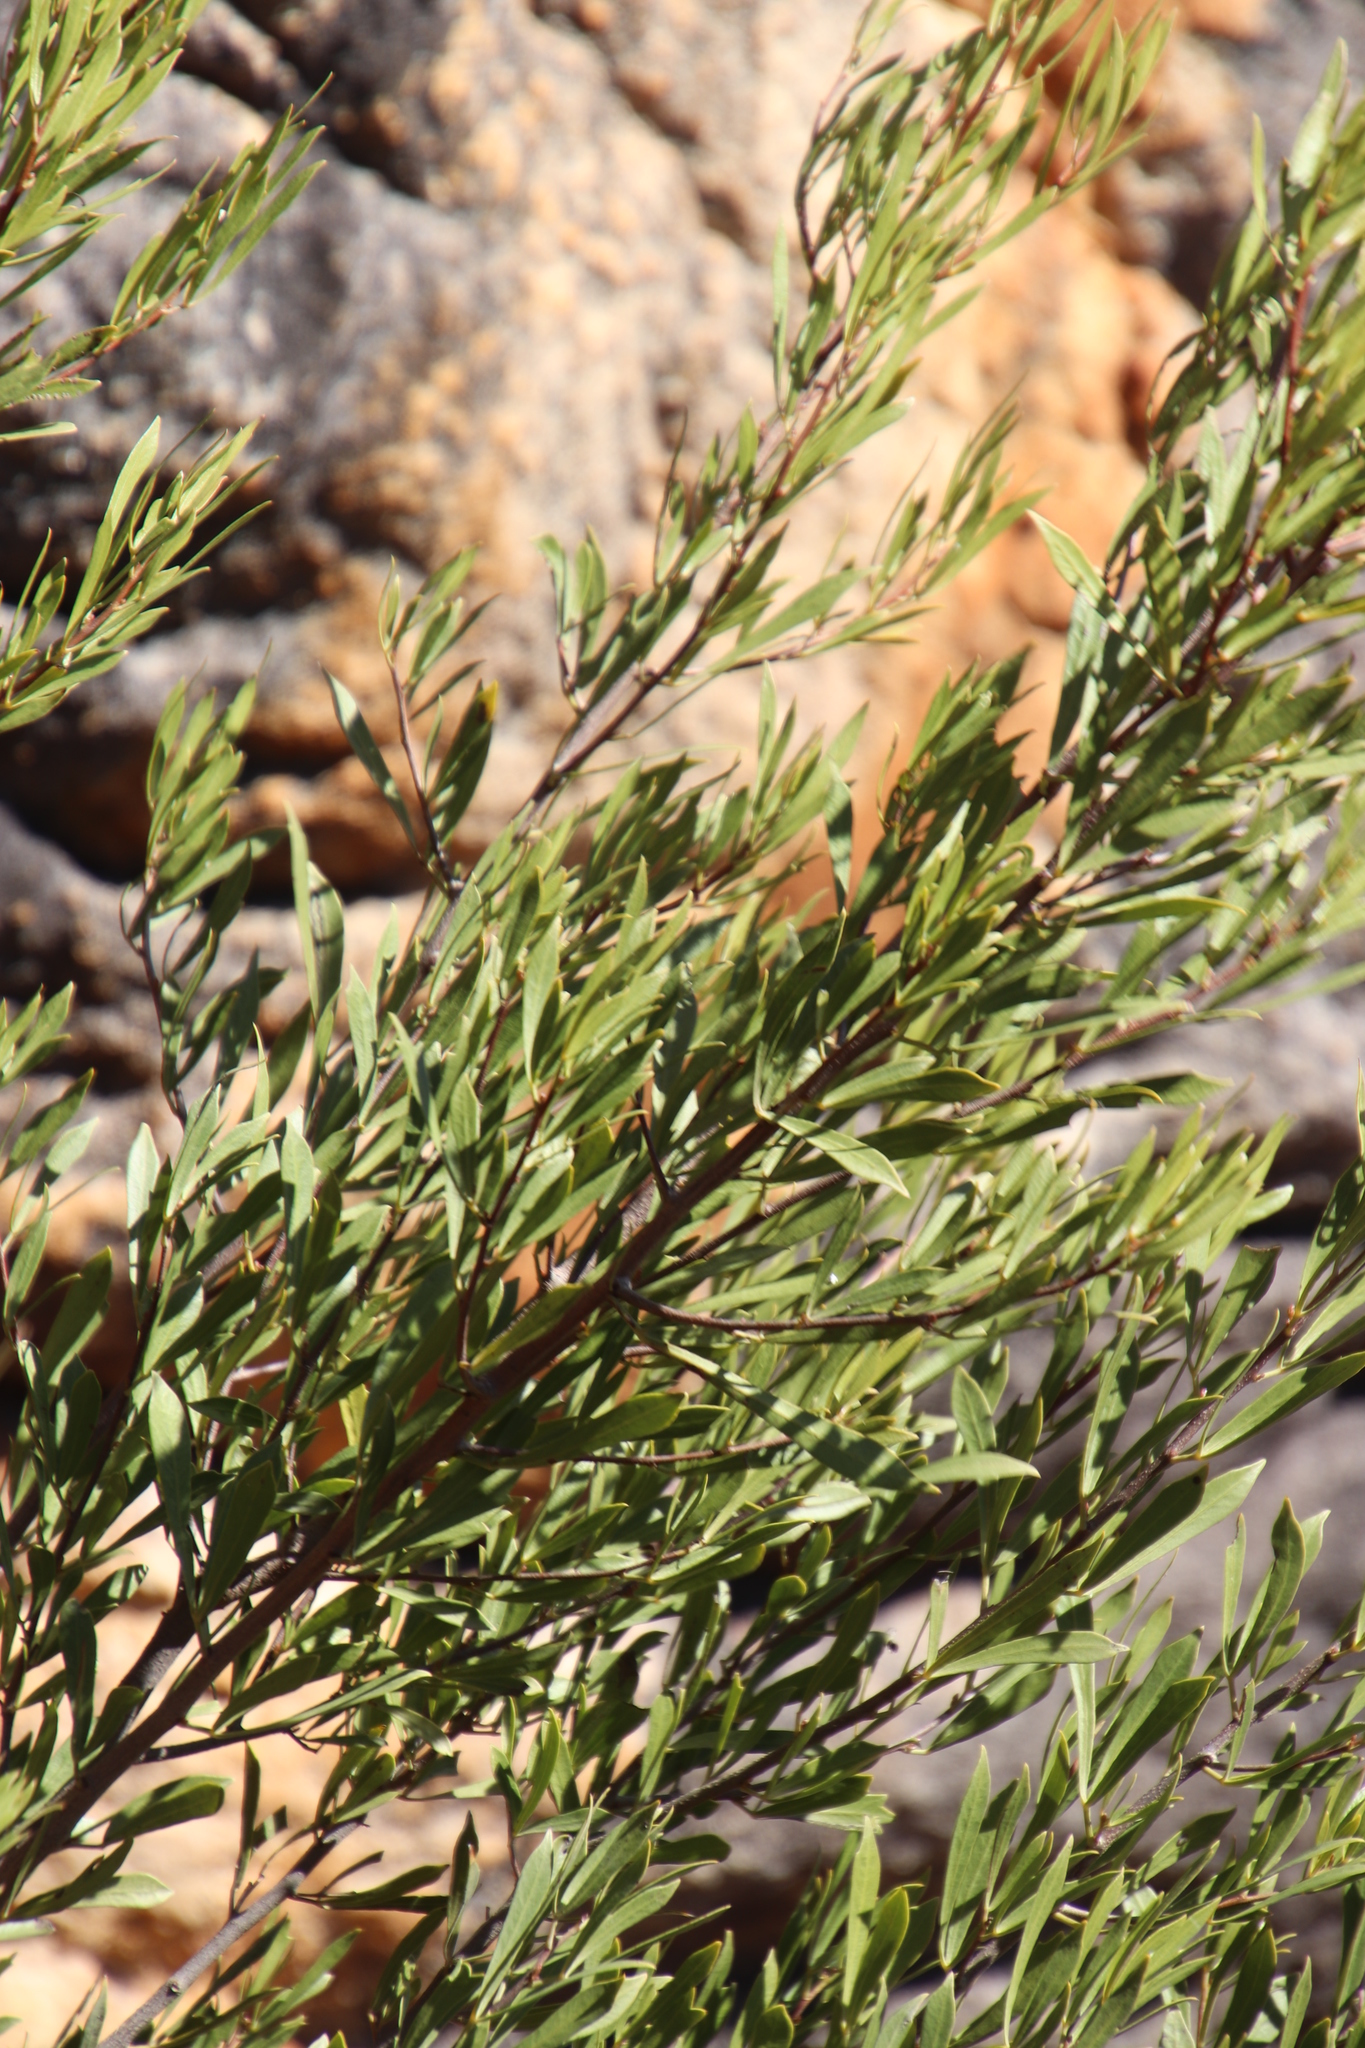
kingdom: Plantae
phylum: Tracheophyta
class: Magnoliopsida
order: Sapindales
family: Anacardiaceae
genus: Searsia
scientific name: Searsia rimosa
